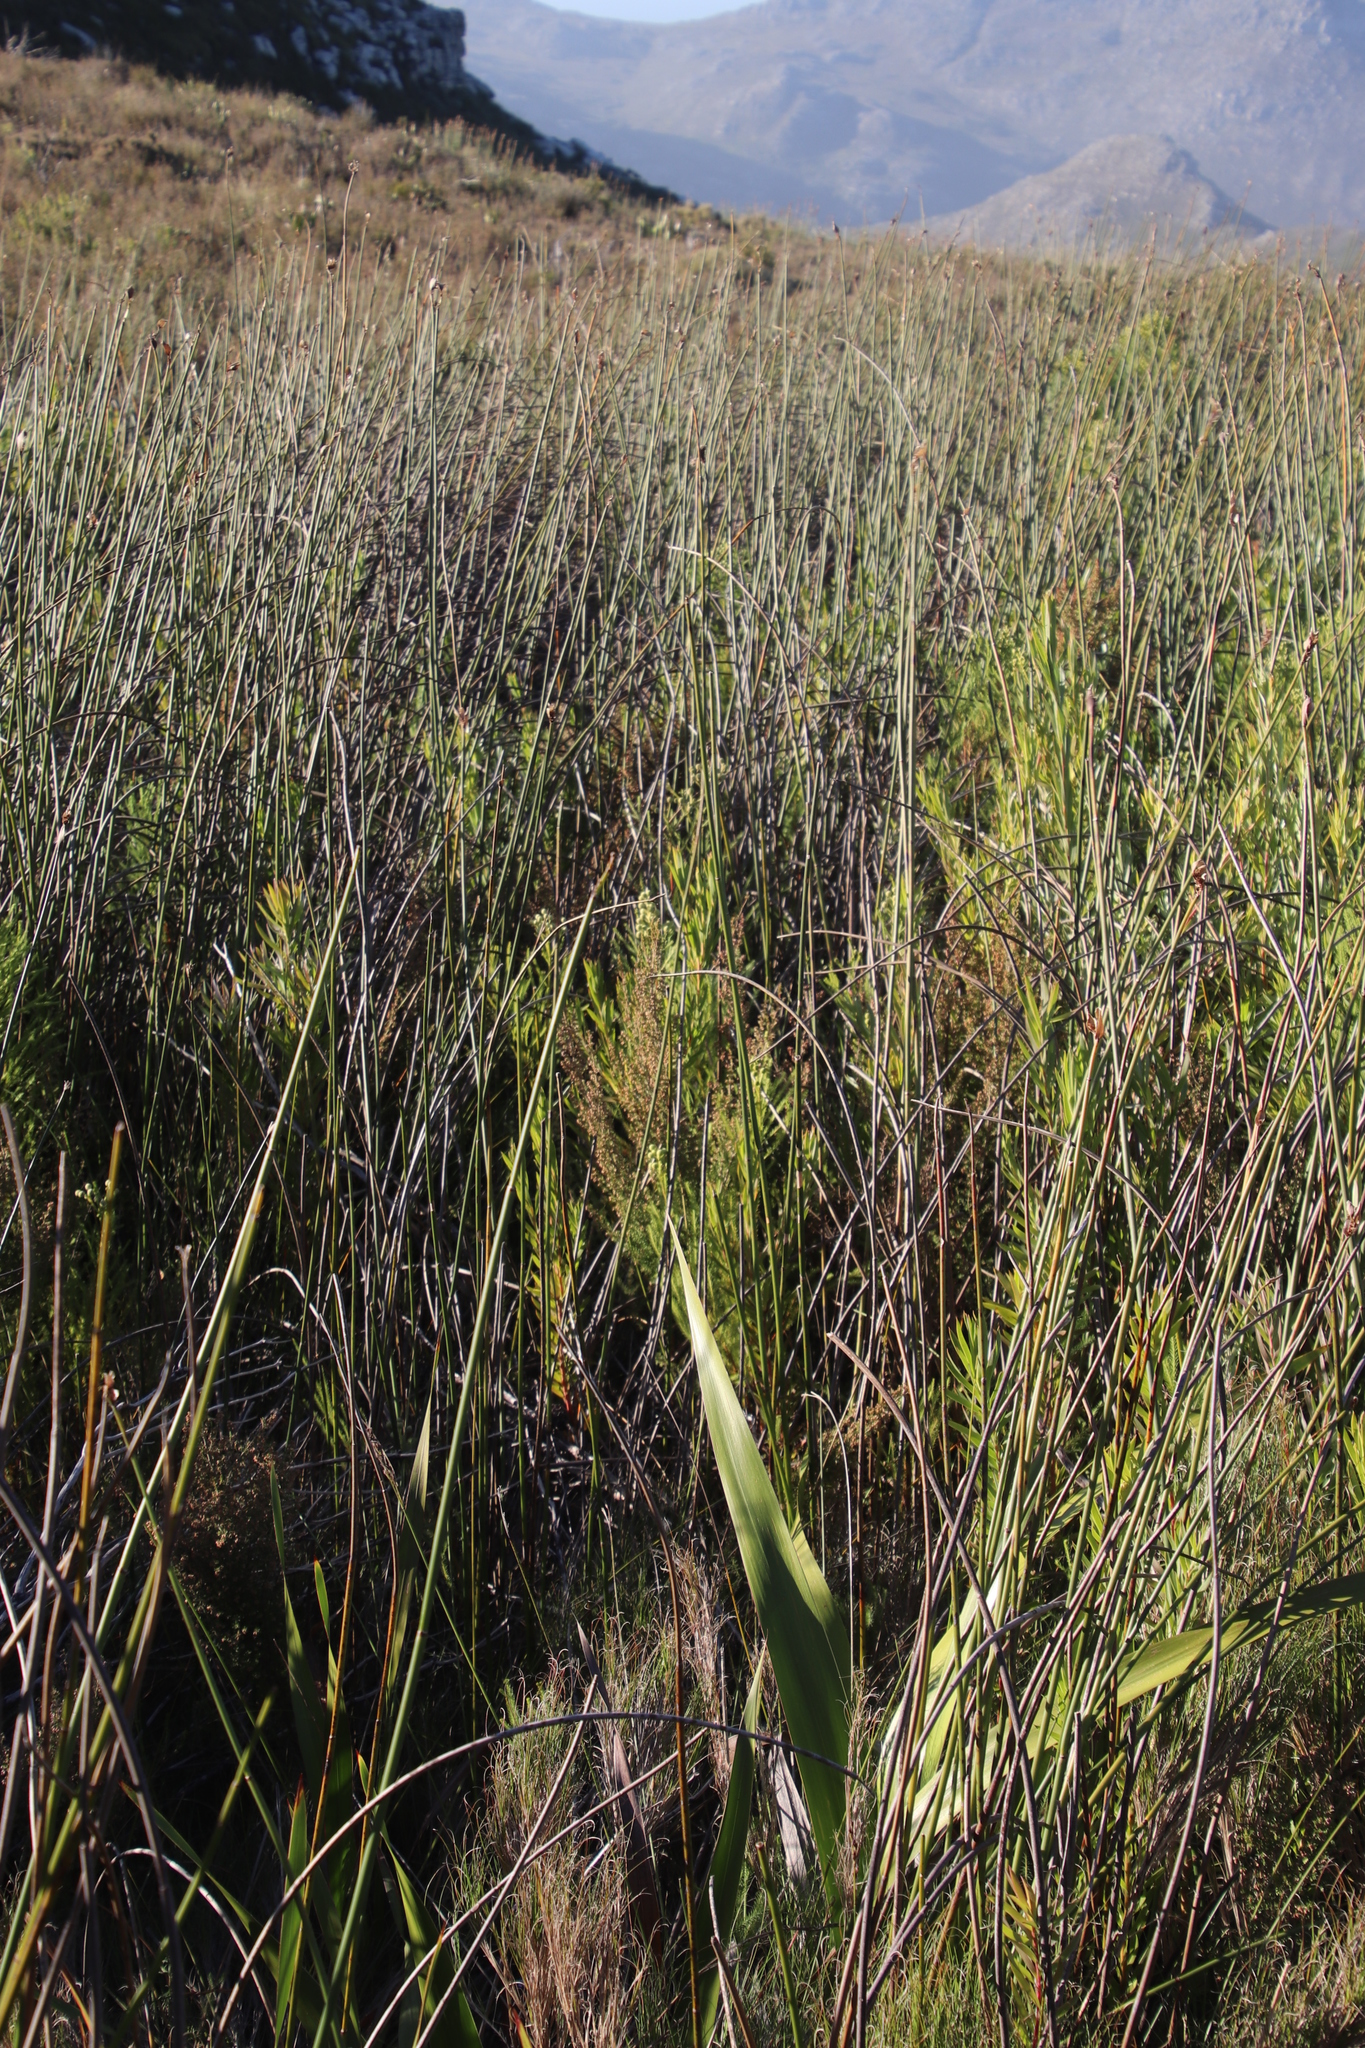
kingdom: Plantae
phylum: Tracheophyta
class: Magnoliopsida
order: Proteales
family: Proteaceae
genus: Leucadendron
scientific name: Leucadendron xanthoconus
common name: Sickle-leaf conebush
